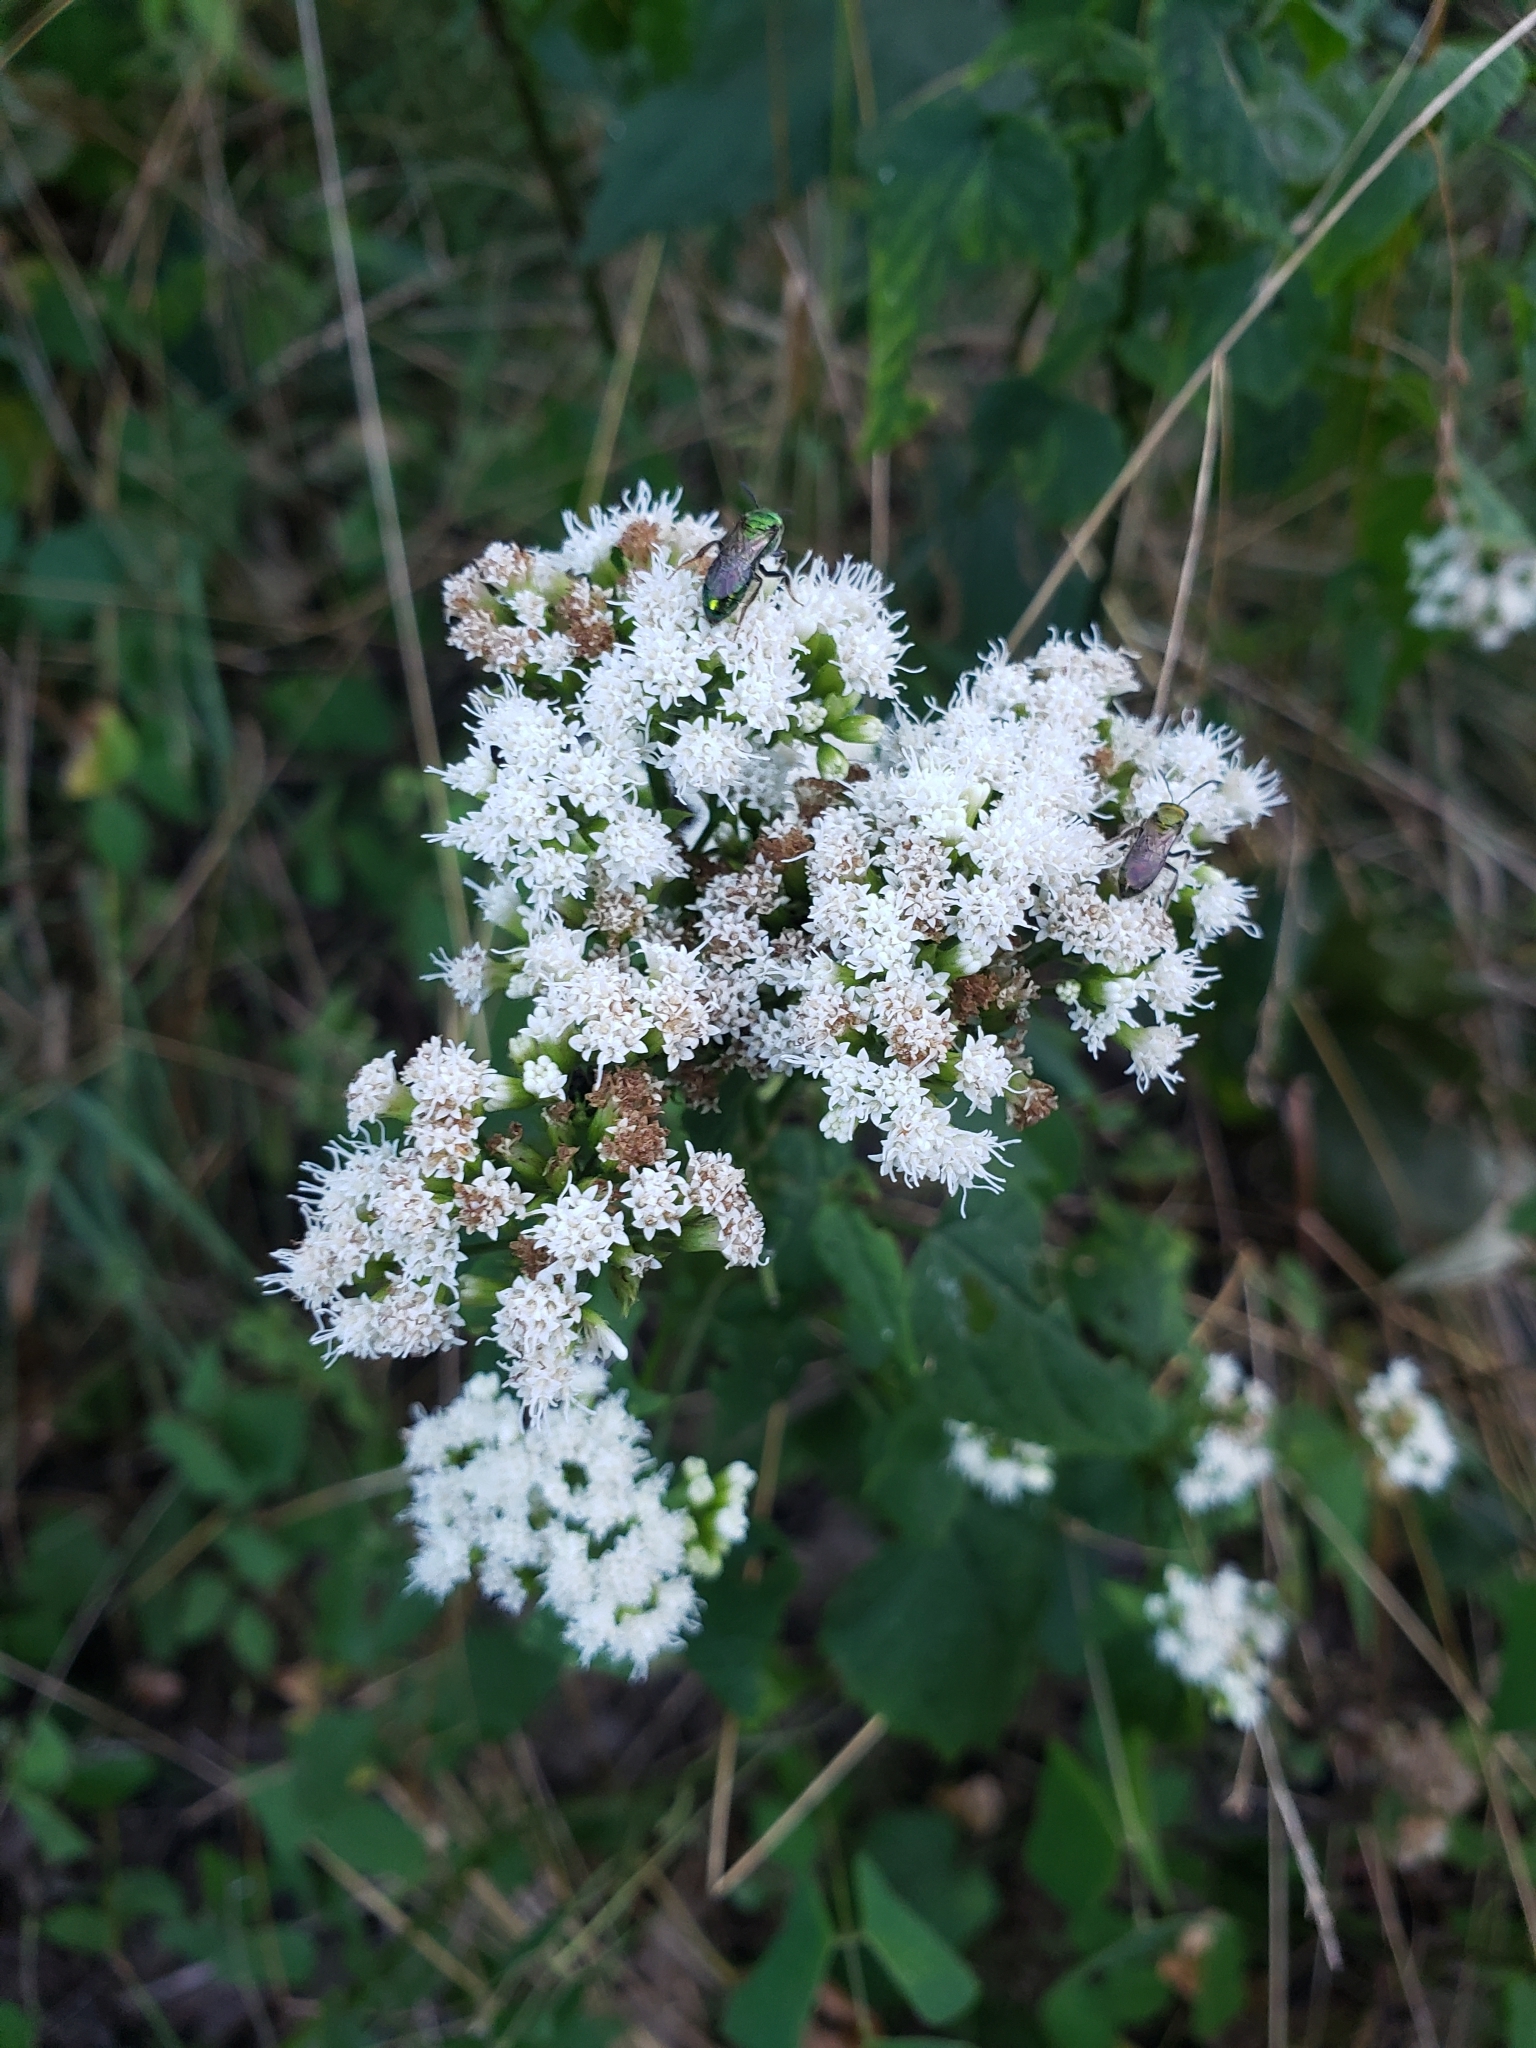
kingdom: Plantae
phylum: Tracheophyta
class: Magnoliopsida
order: Asterales
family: Asteraceae
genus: Ageratina
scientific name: Ageratina altissima
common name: White snakeroot
